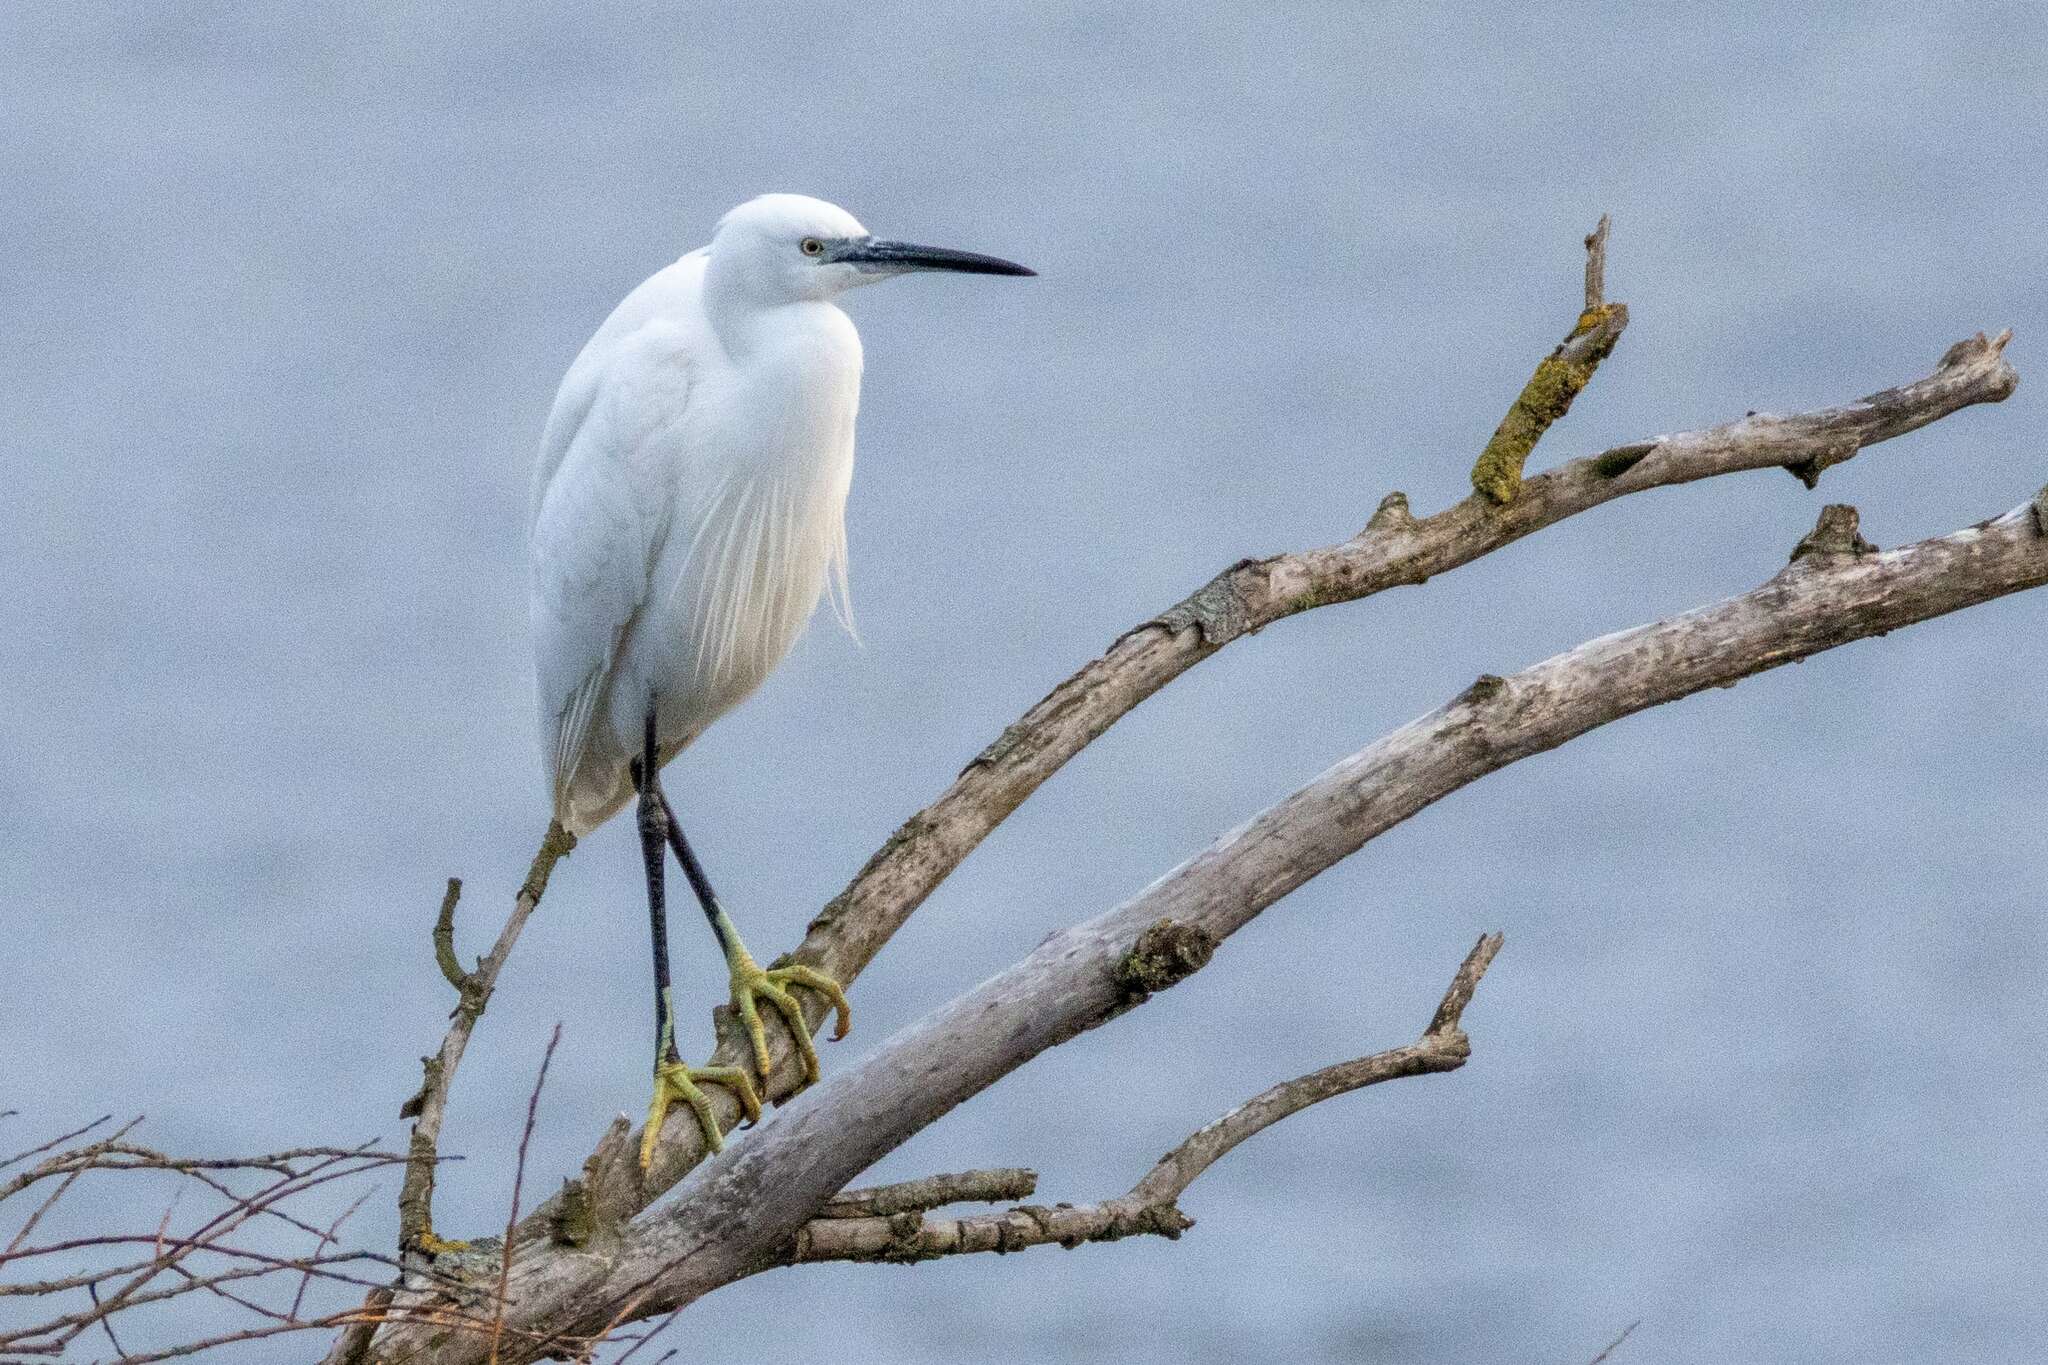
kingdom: Animalia
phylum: Chordata
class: Aves
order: Pelecaniformes
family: Ardeidae
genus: Egretta
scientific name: Egretta garzetta
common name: Little egret
